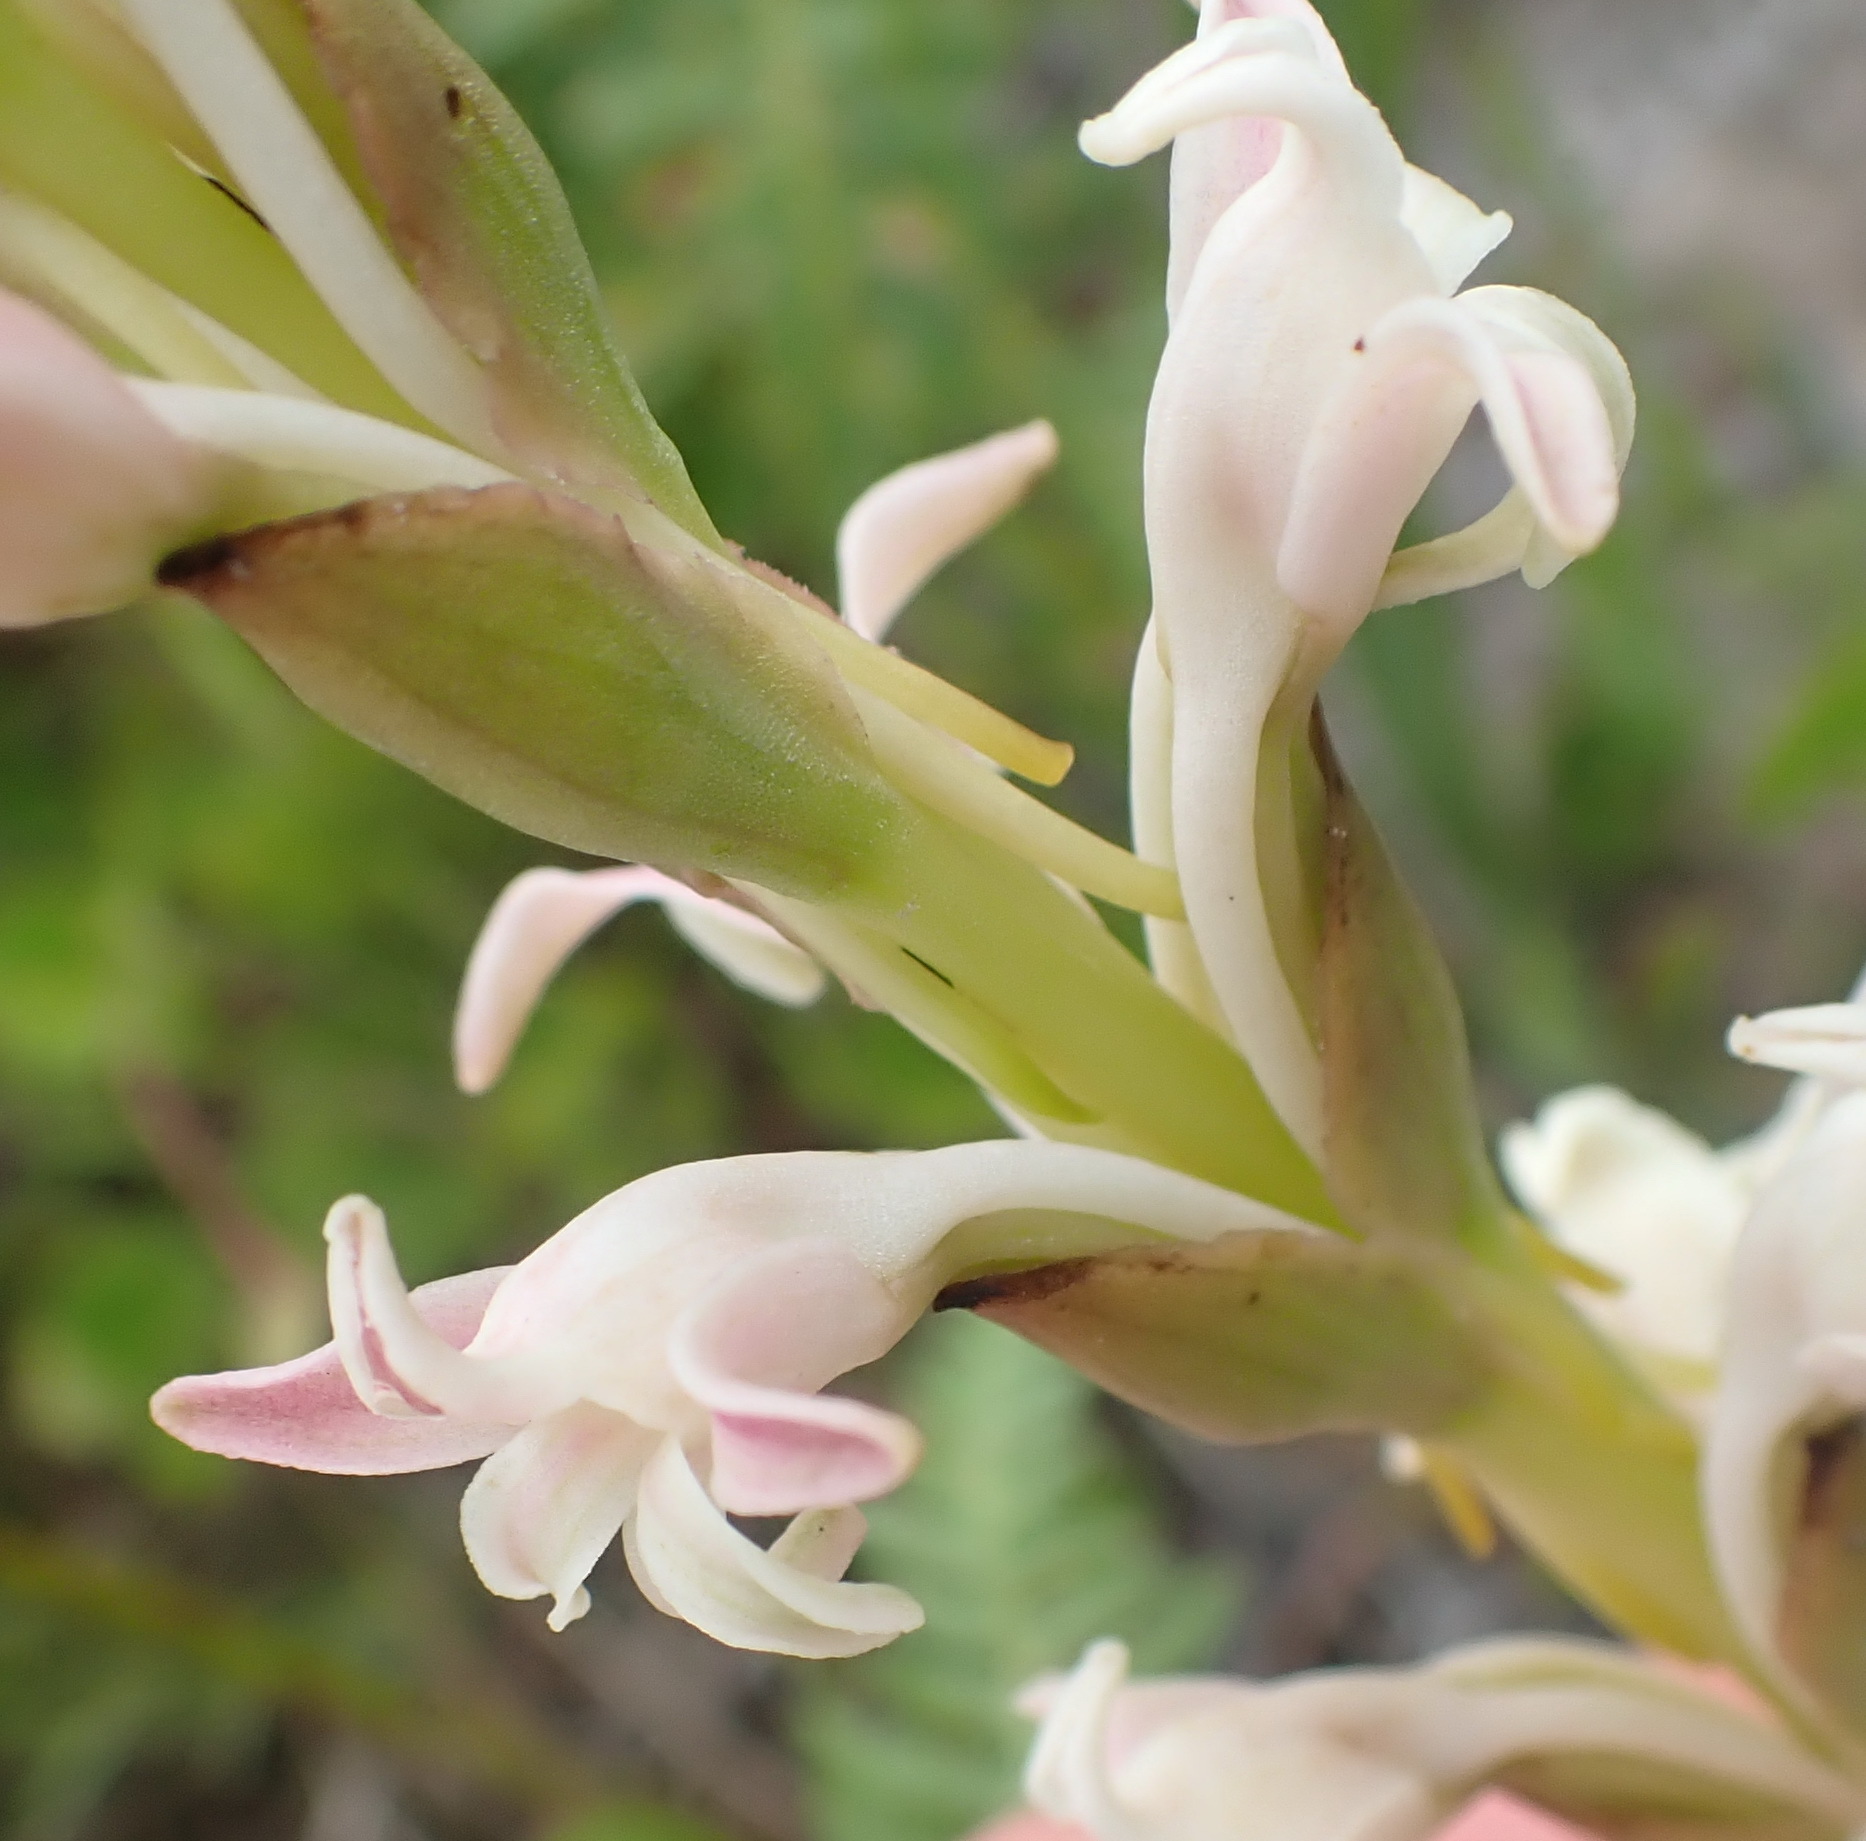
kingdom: Plantae
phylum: Tracheophyta
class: Liliopsida
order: Asparagales
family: Orchidaceae
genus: Satyrium
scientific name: Satyrium stenopetalum
